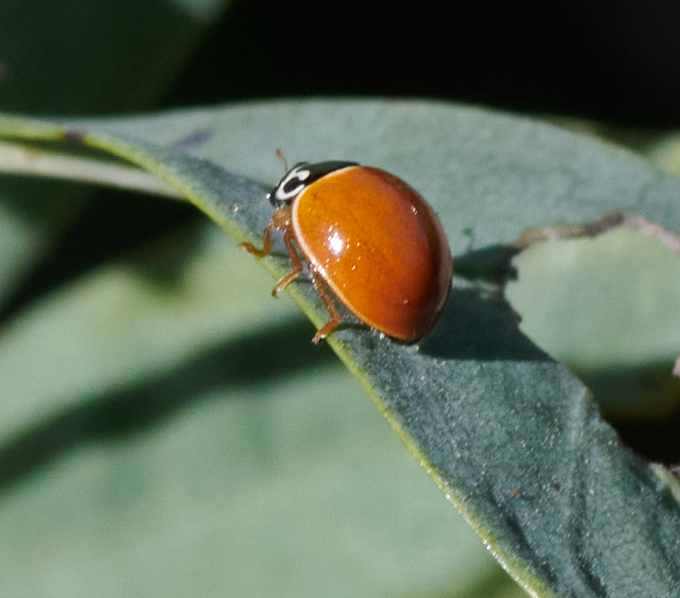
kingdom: Animalia
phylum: Arthropoda
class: Insecta
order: Coleoptera
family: Coccinellidae
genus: Cycloneda
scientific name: Cycloneda munda
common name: Polished lady beetle
